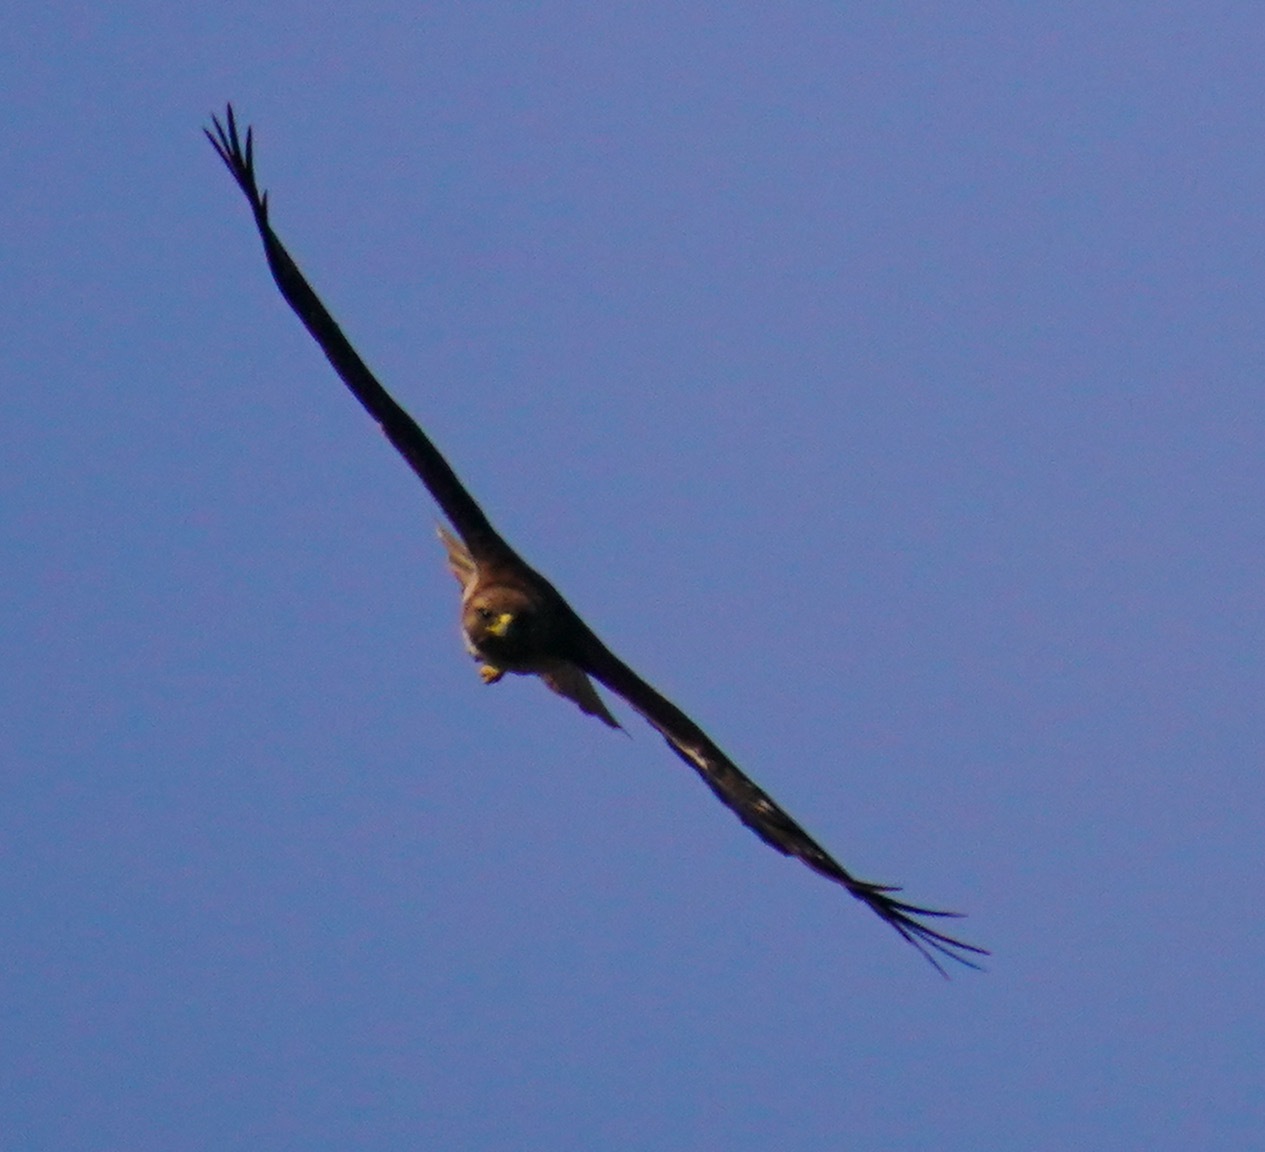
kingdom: Animalia
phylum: Chordata
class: Aves
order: Accipitriformes
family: Accipitridae
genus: Buteo
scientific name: Buteo jamaicensis
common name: Red-tailed hawk
